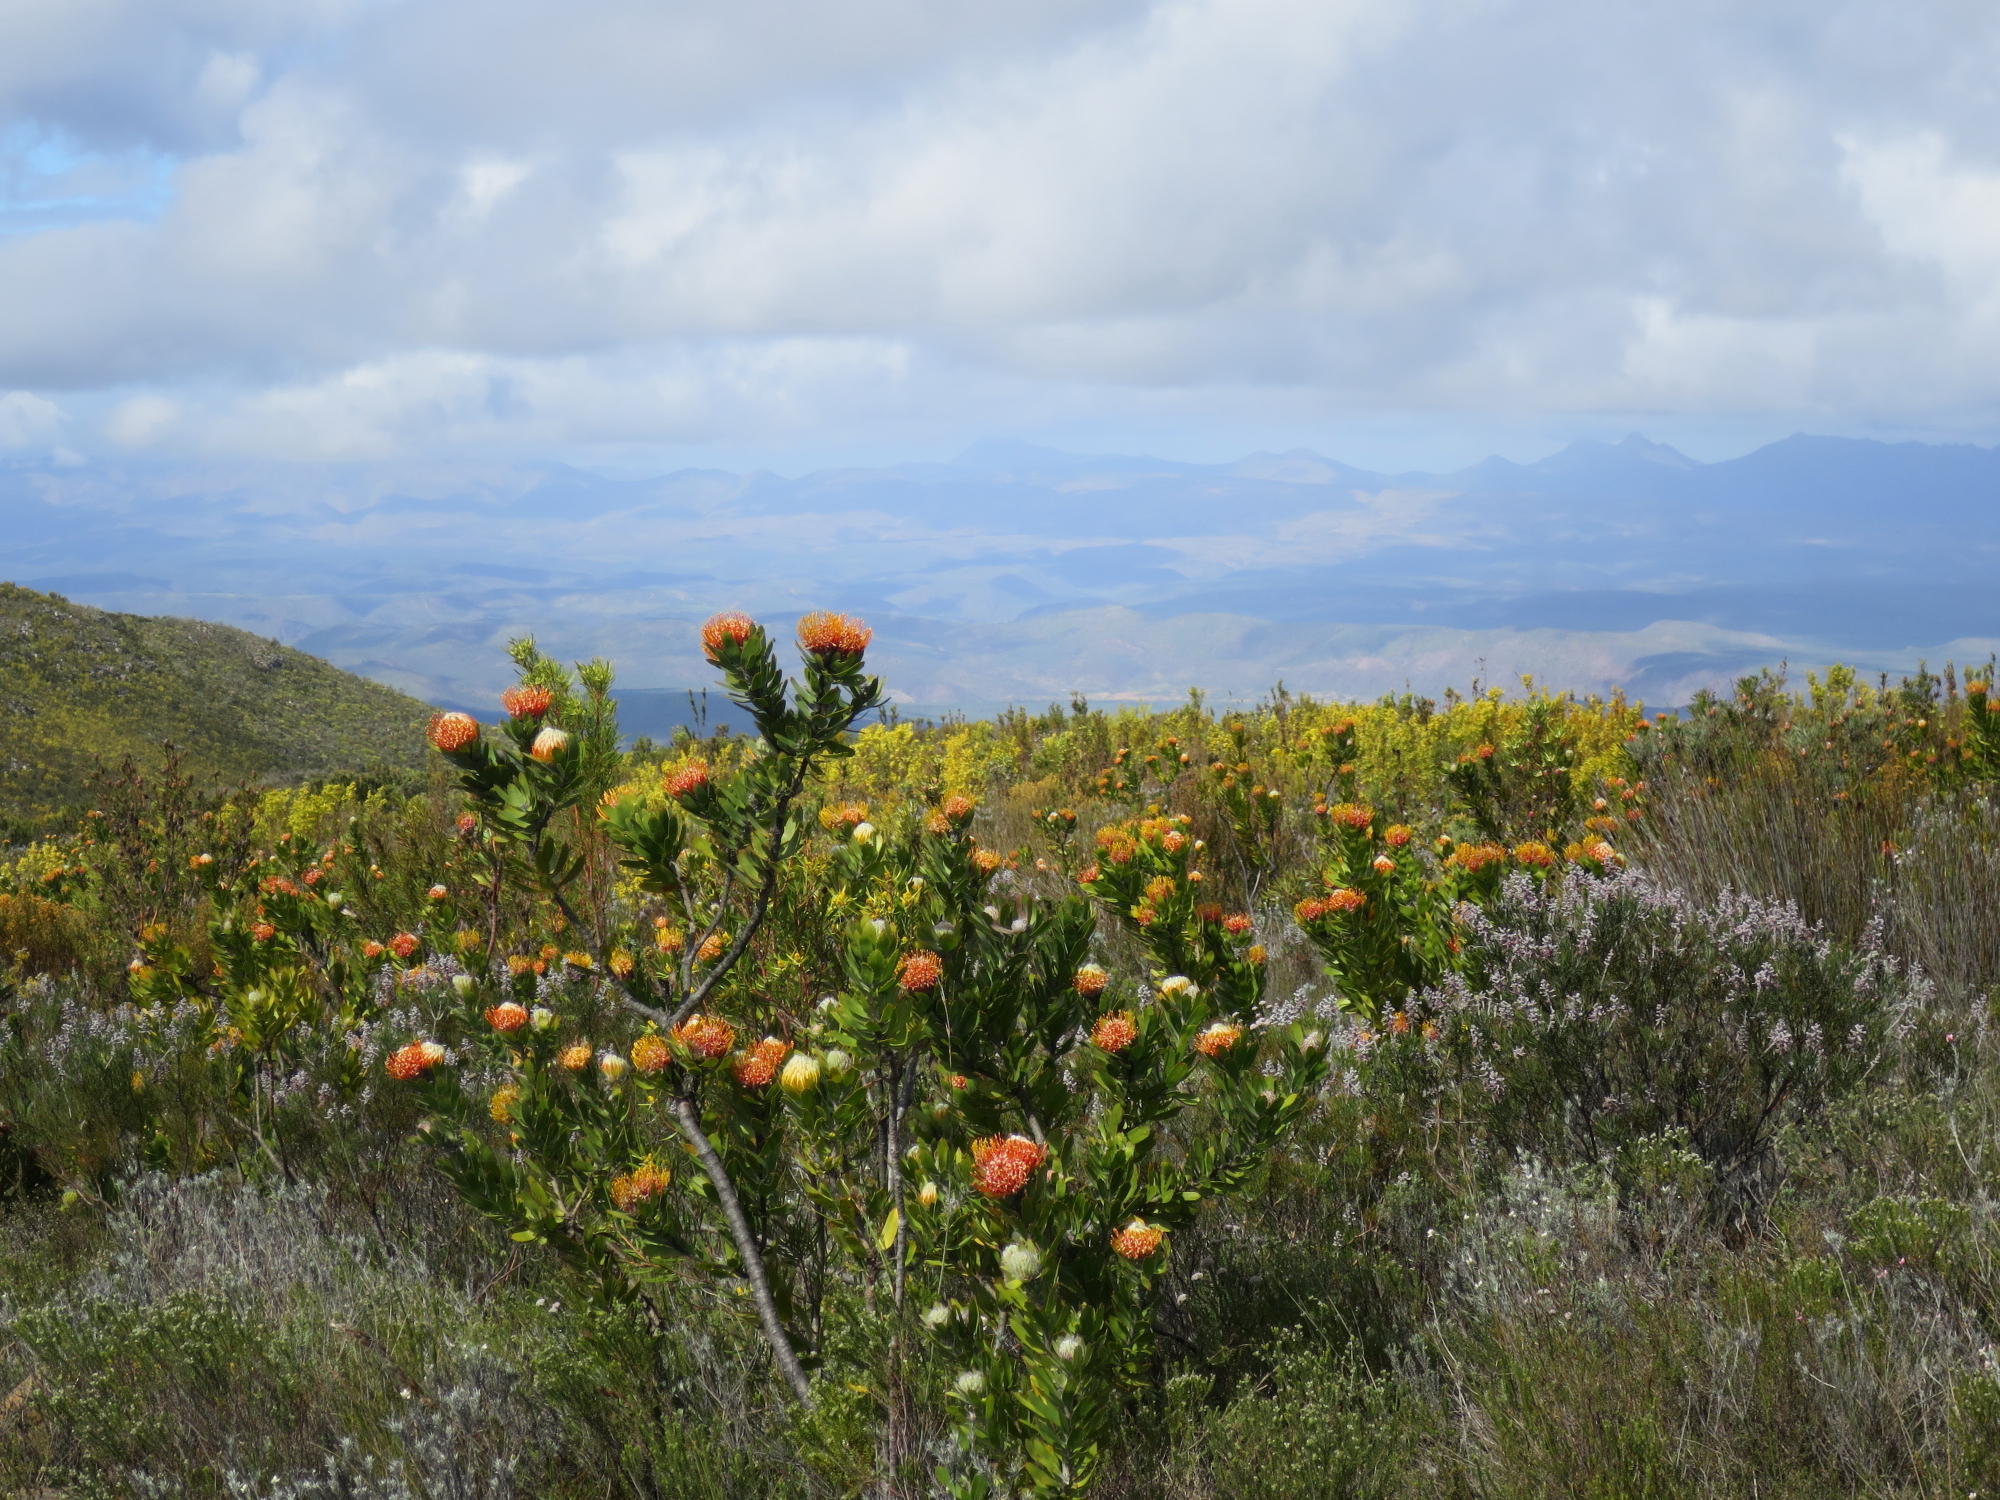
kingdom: Plantae
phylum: Tracheophyta
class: Magnoliopsida
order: Proteales
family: Proteaceae
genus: Leucospermum
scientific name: Leucospermum pluridens
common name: Robinson pincushion
